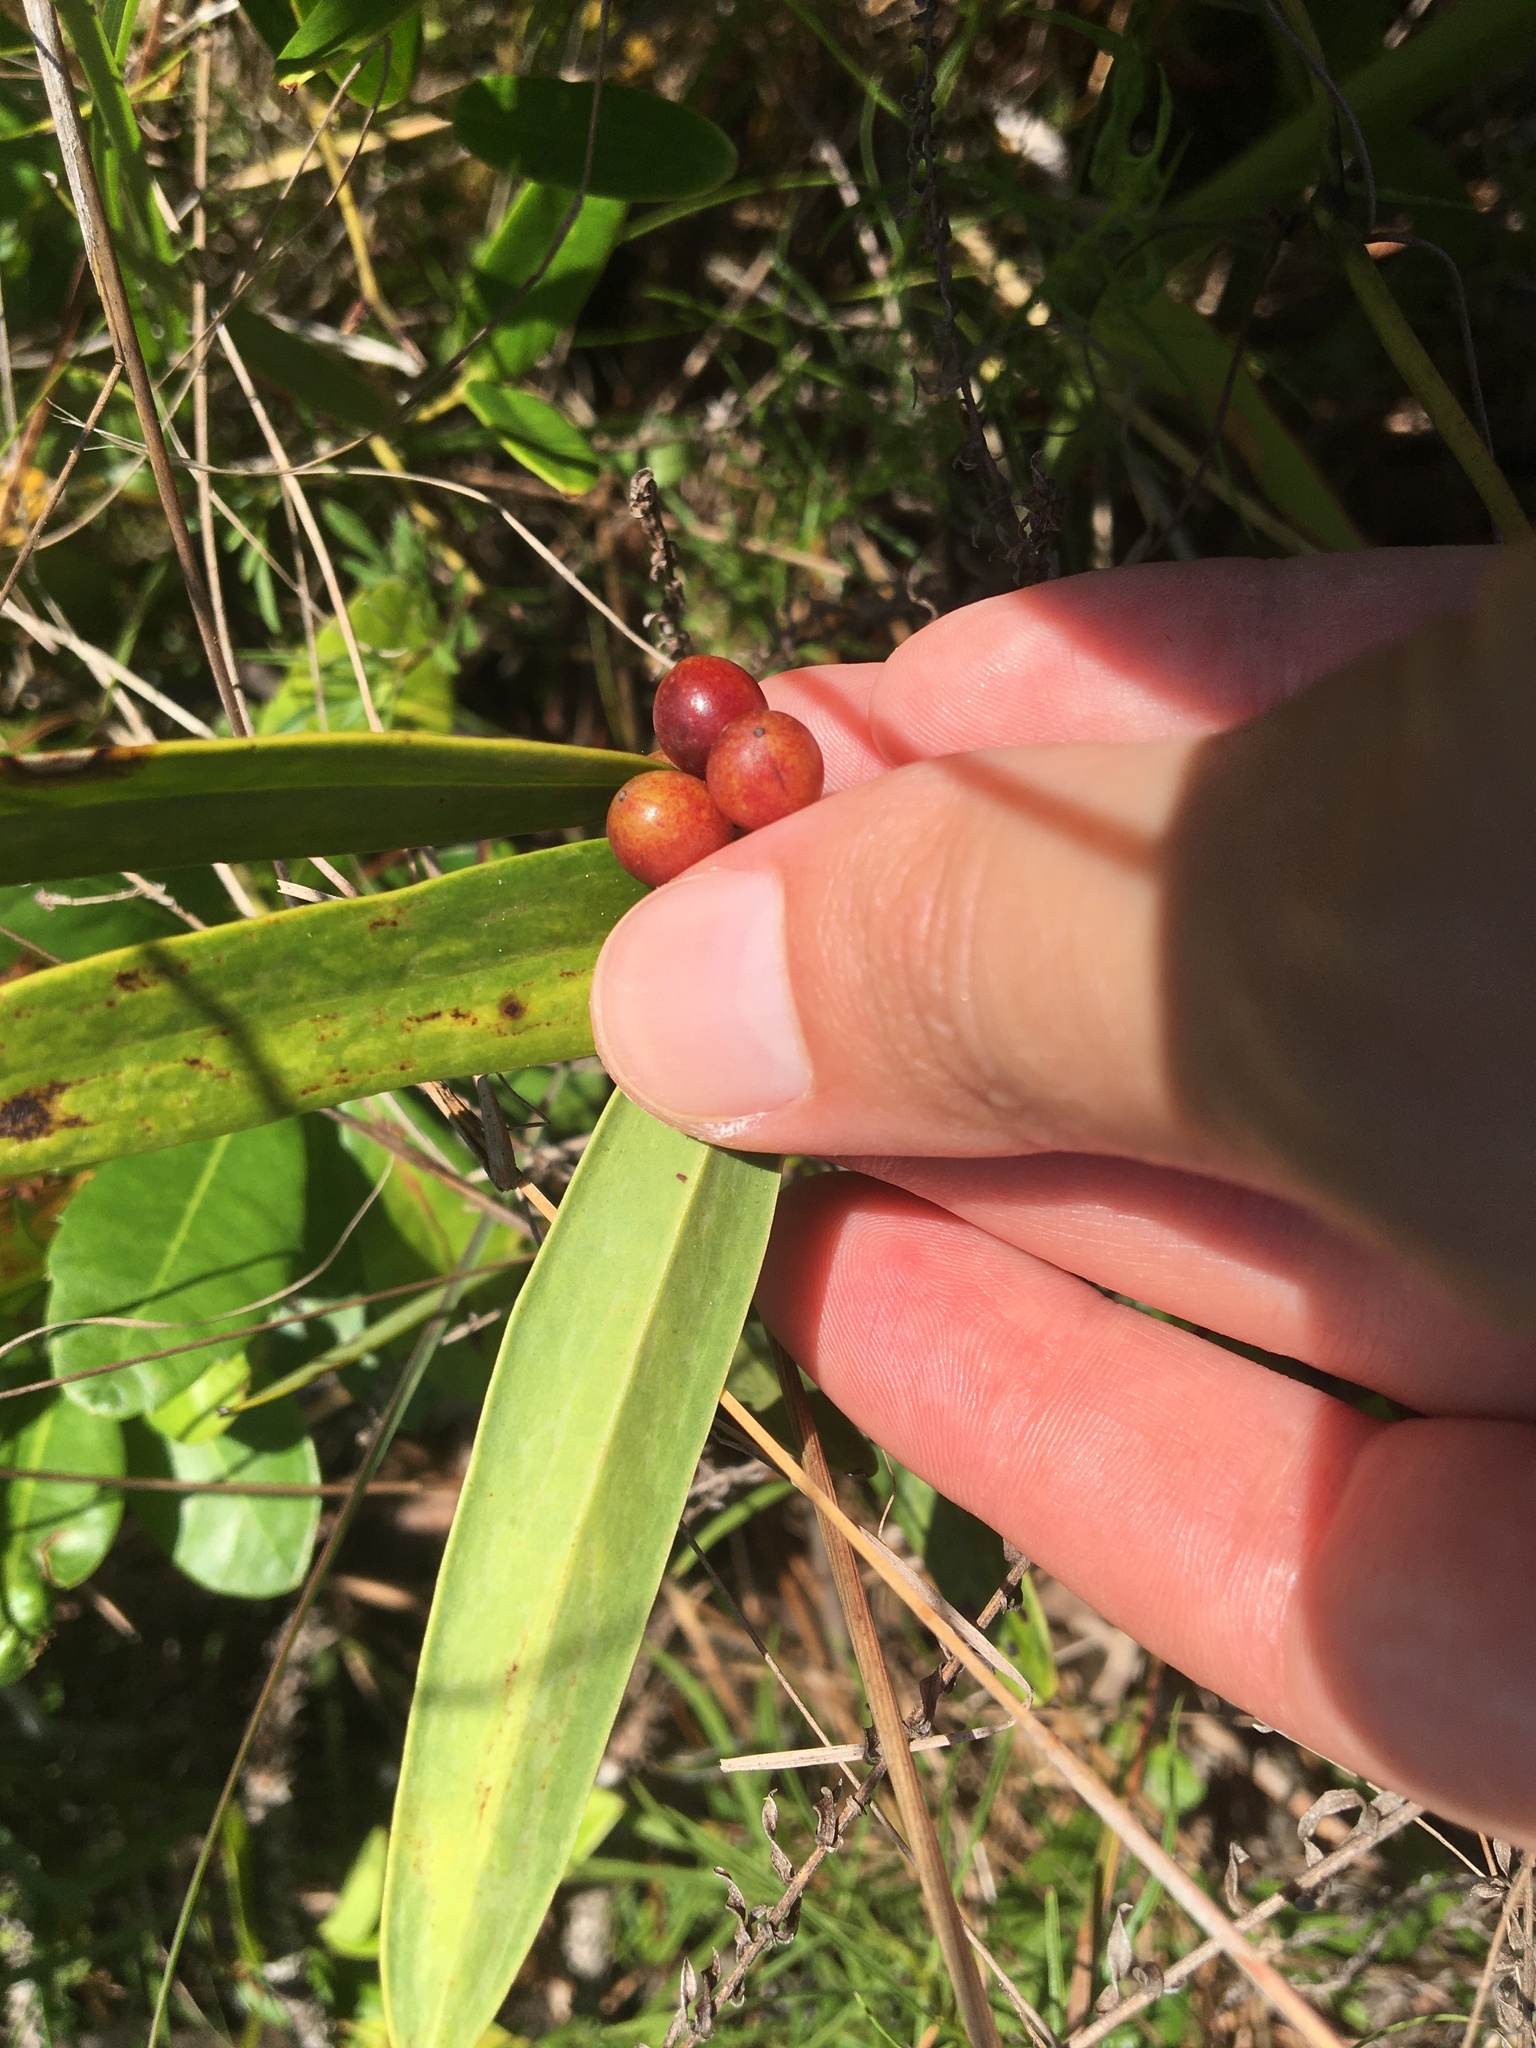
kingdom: Plantae
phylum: Tracheophyta
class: Liliopsida
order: Liliales
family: Smilacaceae
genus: Smilax
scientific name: Smilax laurifolia
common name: Bamboovine
